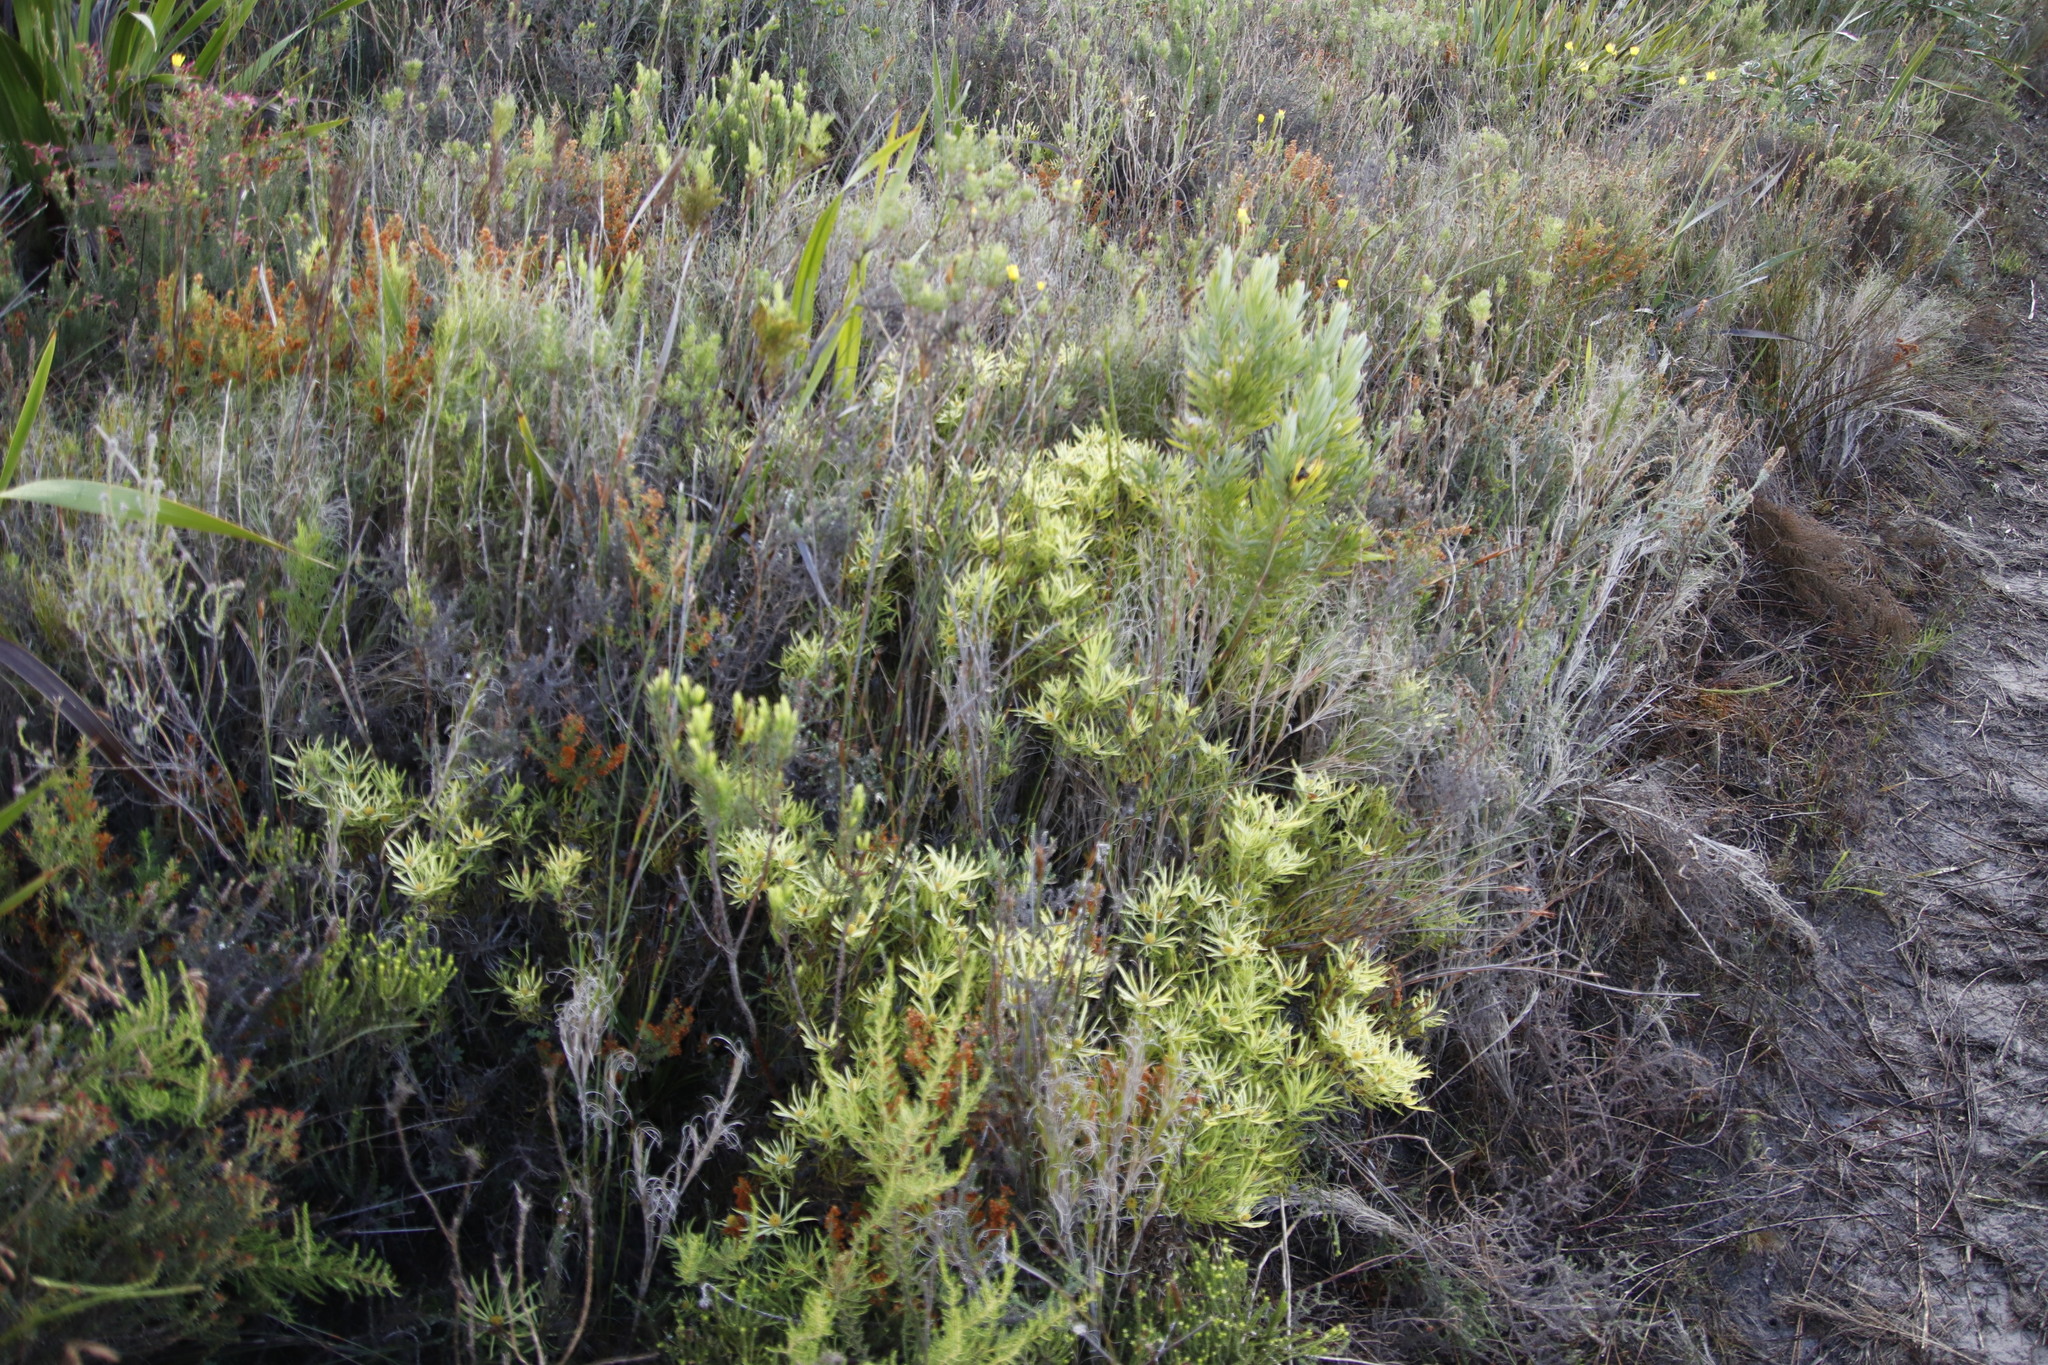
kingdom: Plantae
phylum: Tracheophyta
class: Magnoliopsida
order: Proteales
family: Proteaceae
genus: Leucadendron
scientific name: Leucadendron salignum
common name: Common sunshine conebush
